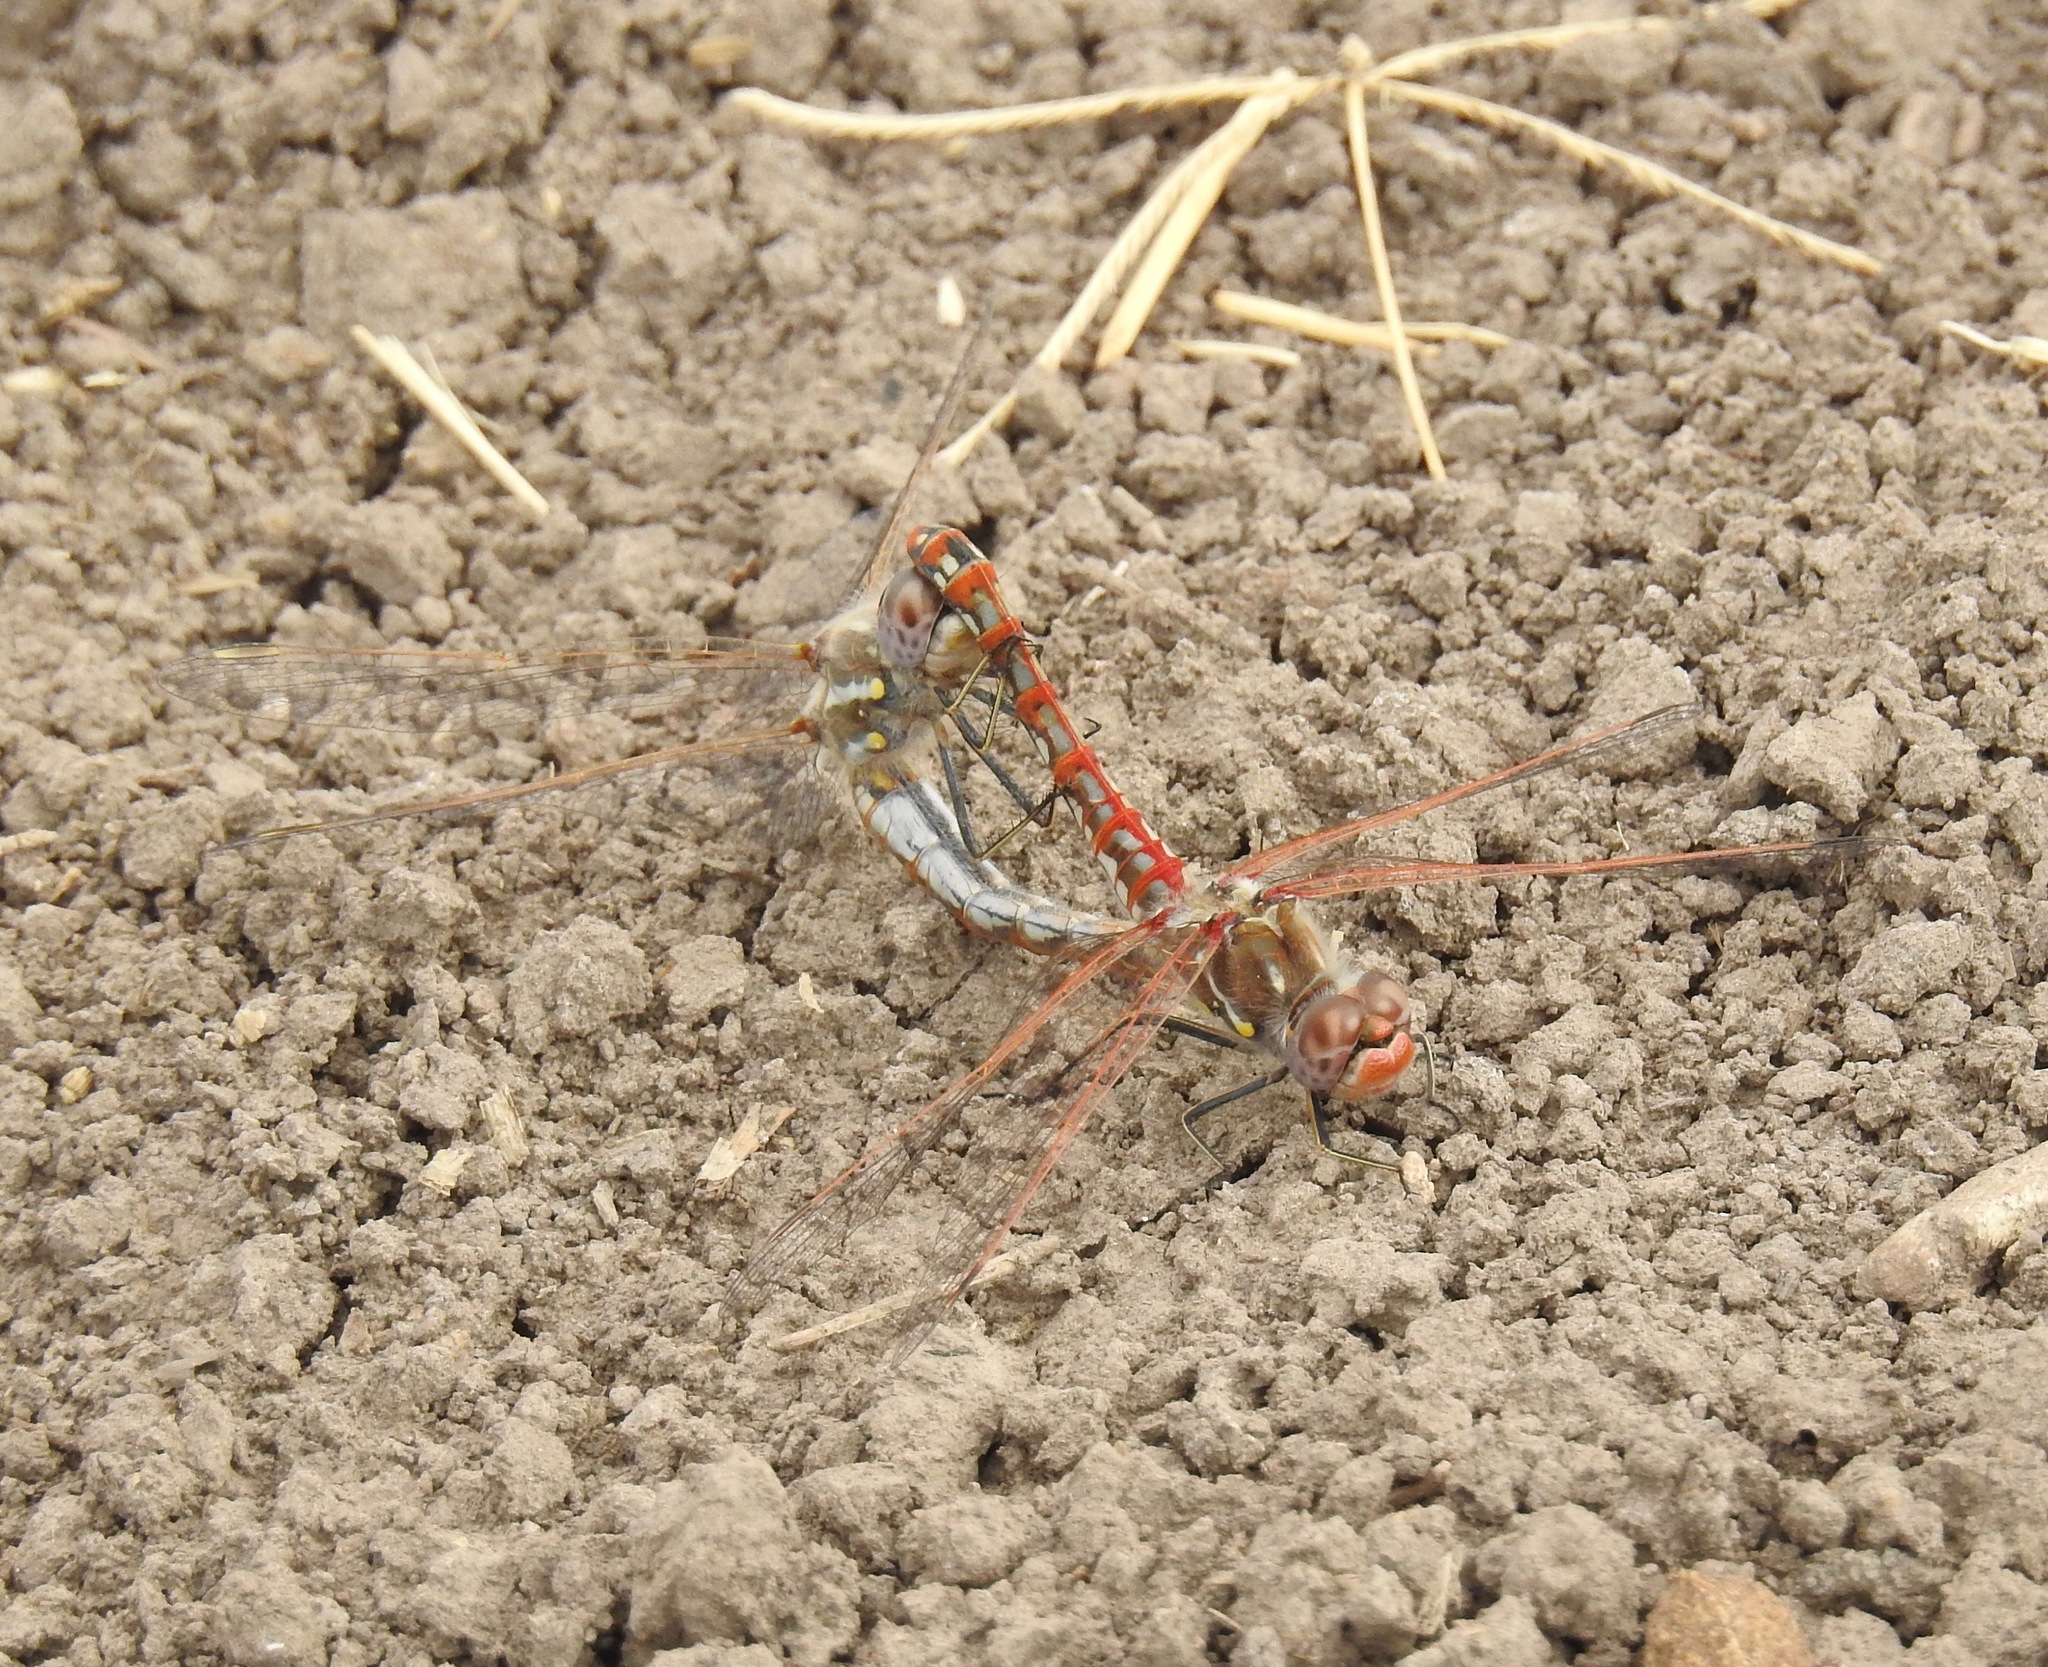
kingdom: Animalia
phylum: Arthropoda
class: Insecta
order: Odonata
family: Libellulidae
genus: Sympetrum
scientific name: Sympetrum corruptum
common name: Variegated meadowhawk
